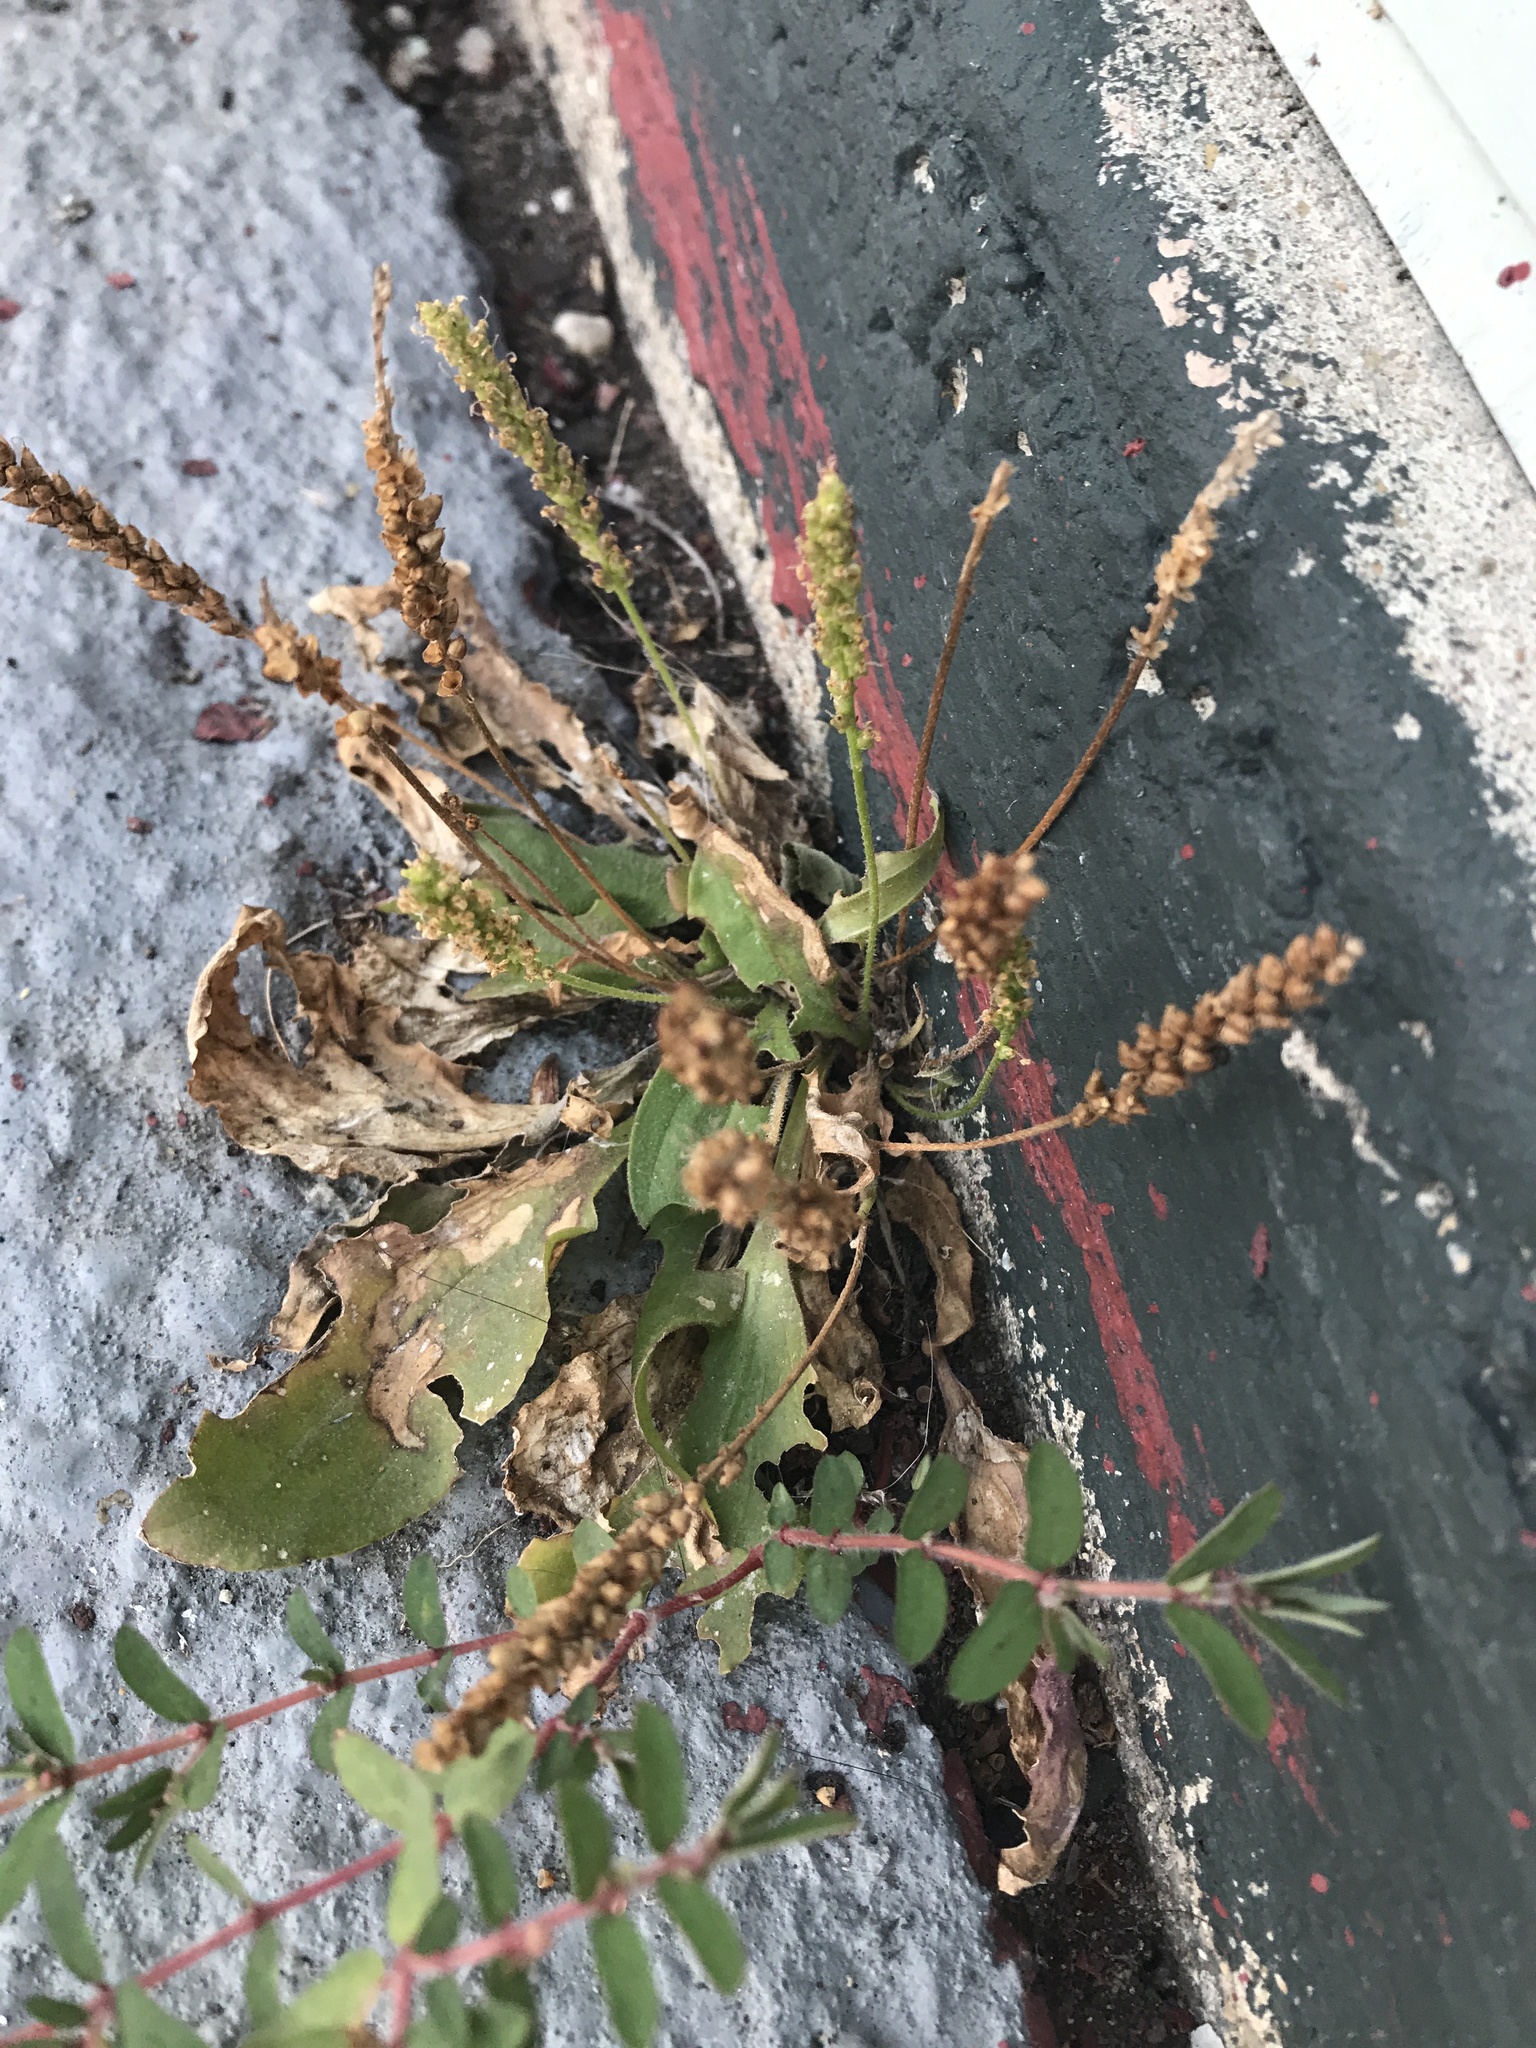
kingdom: Plantae
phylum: Tracheophyta
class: Magnoliopsida
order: Lamiales
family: Plantaginaceae
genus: Plantago
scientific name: Plantago major
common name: Common plantain
